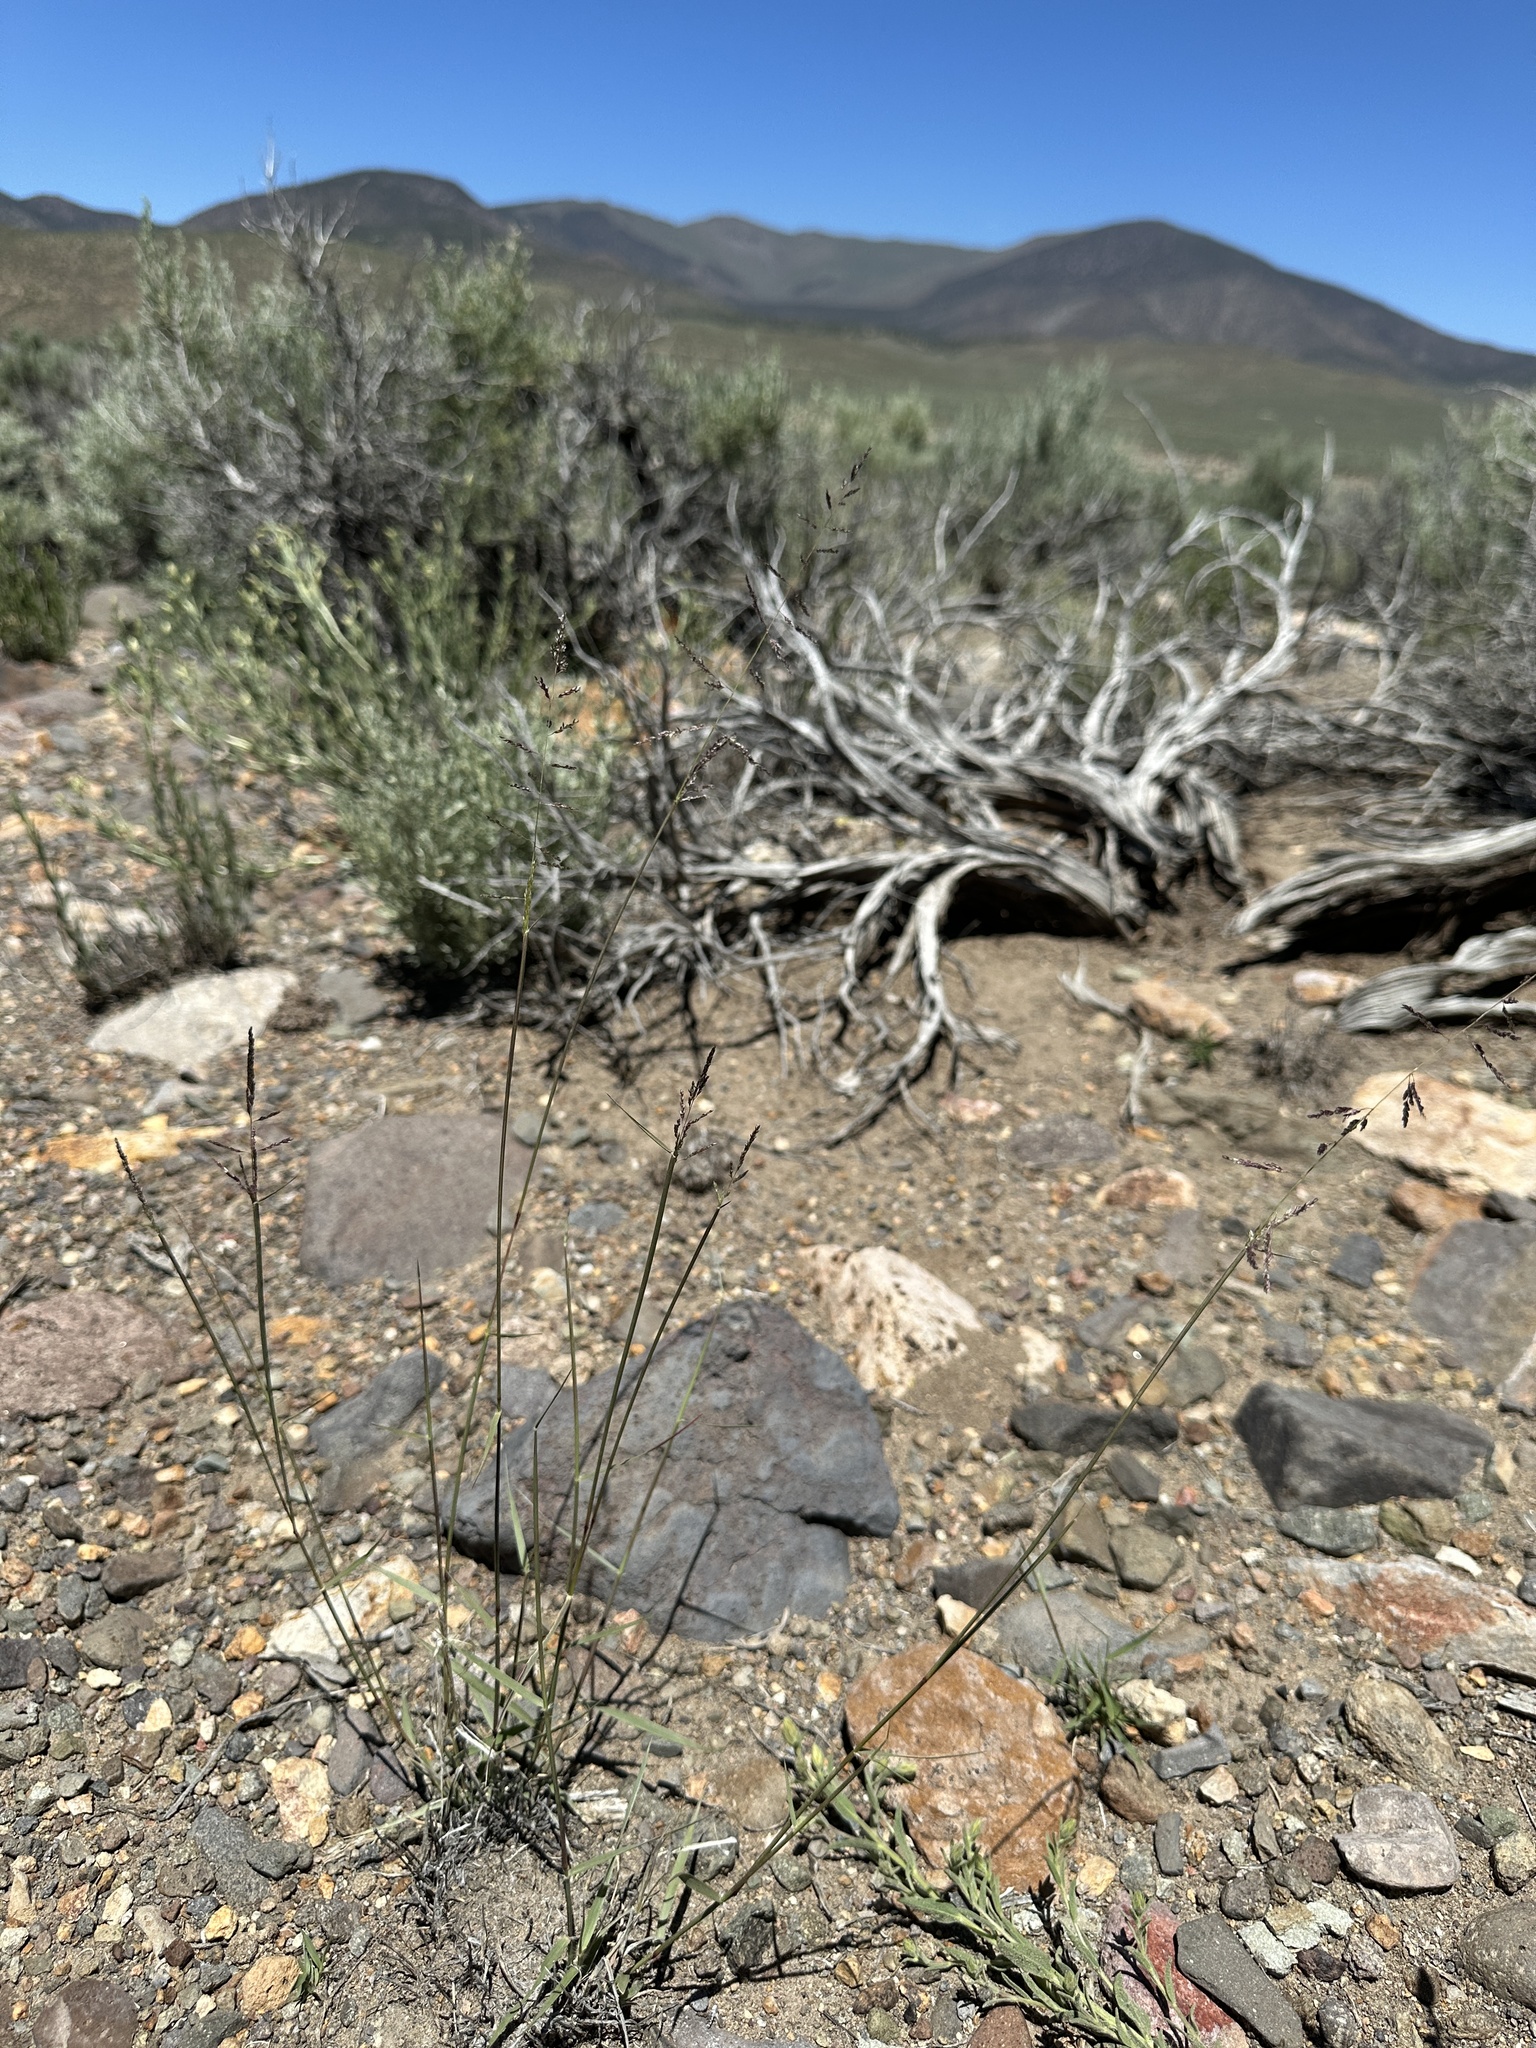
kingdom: Plantae
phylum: Tracheophyta
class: Liliopsida
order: Poales
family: Poaceae
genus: Sporobolus
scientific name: Sporobolus cryptandrus
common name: Sand dropseed
